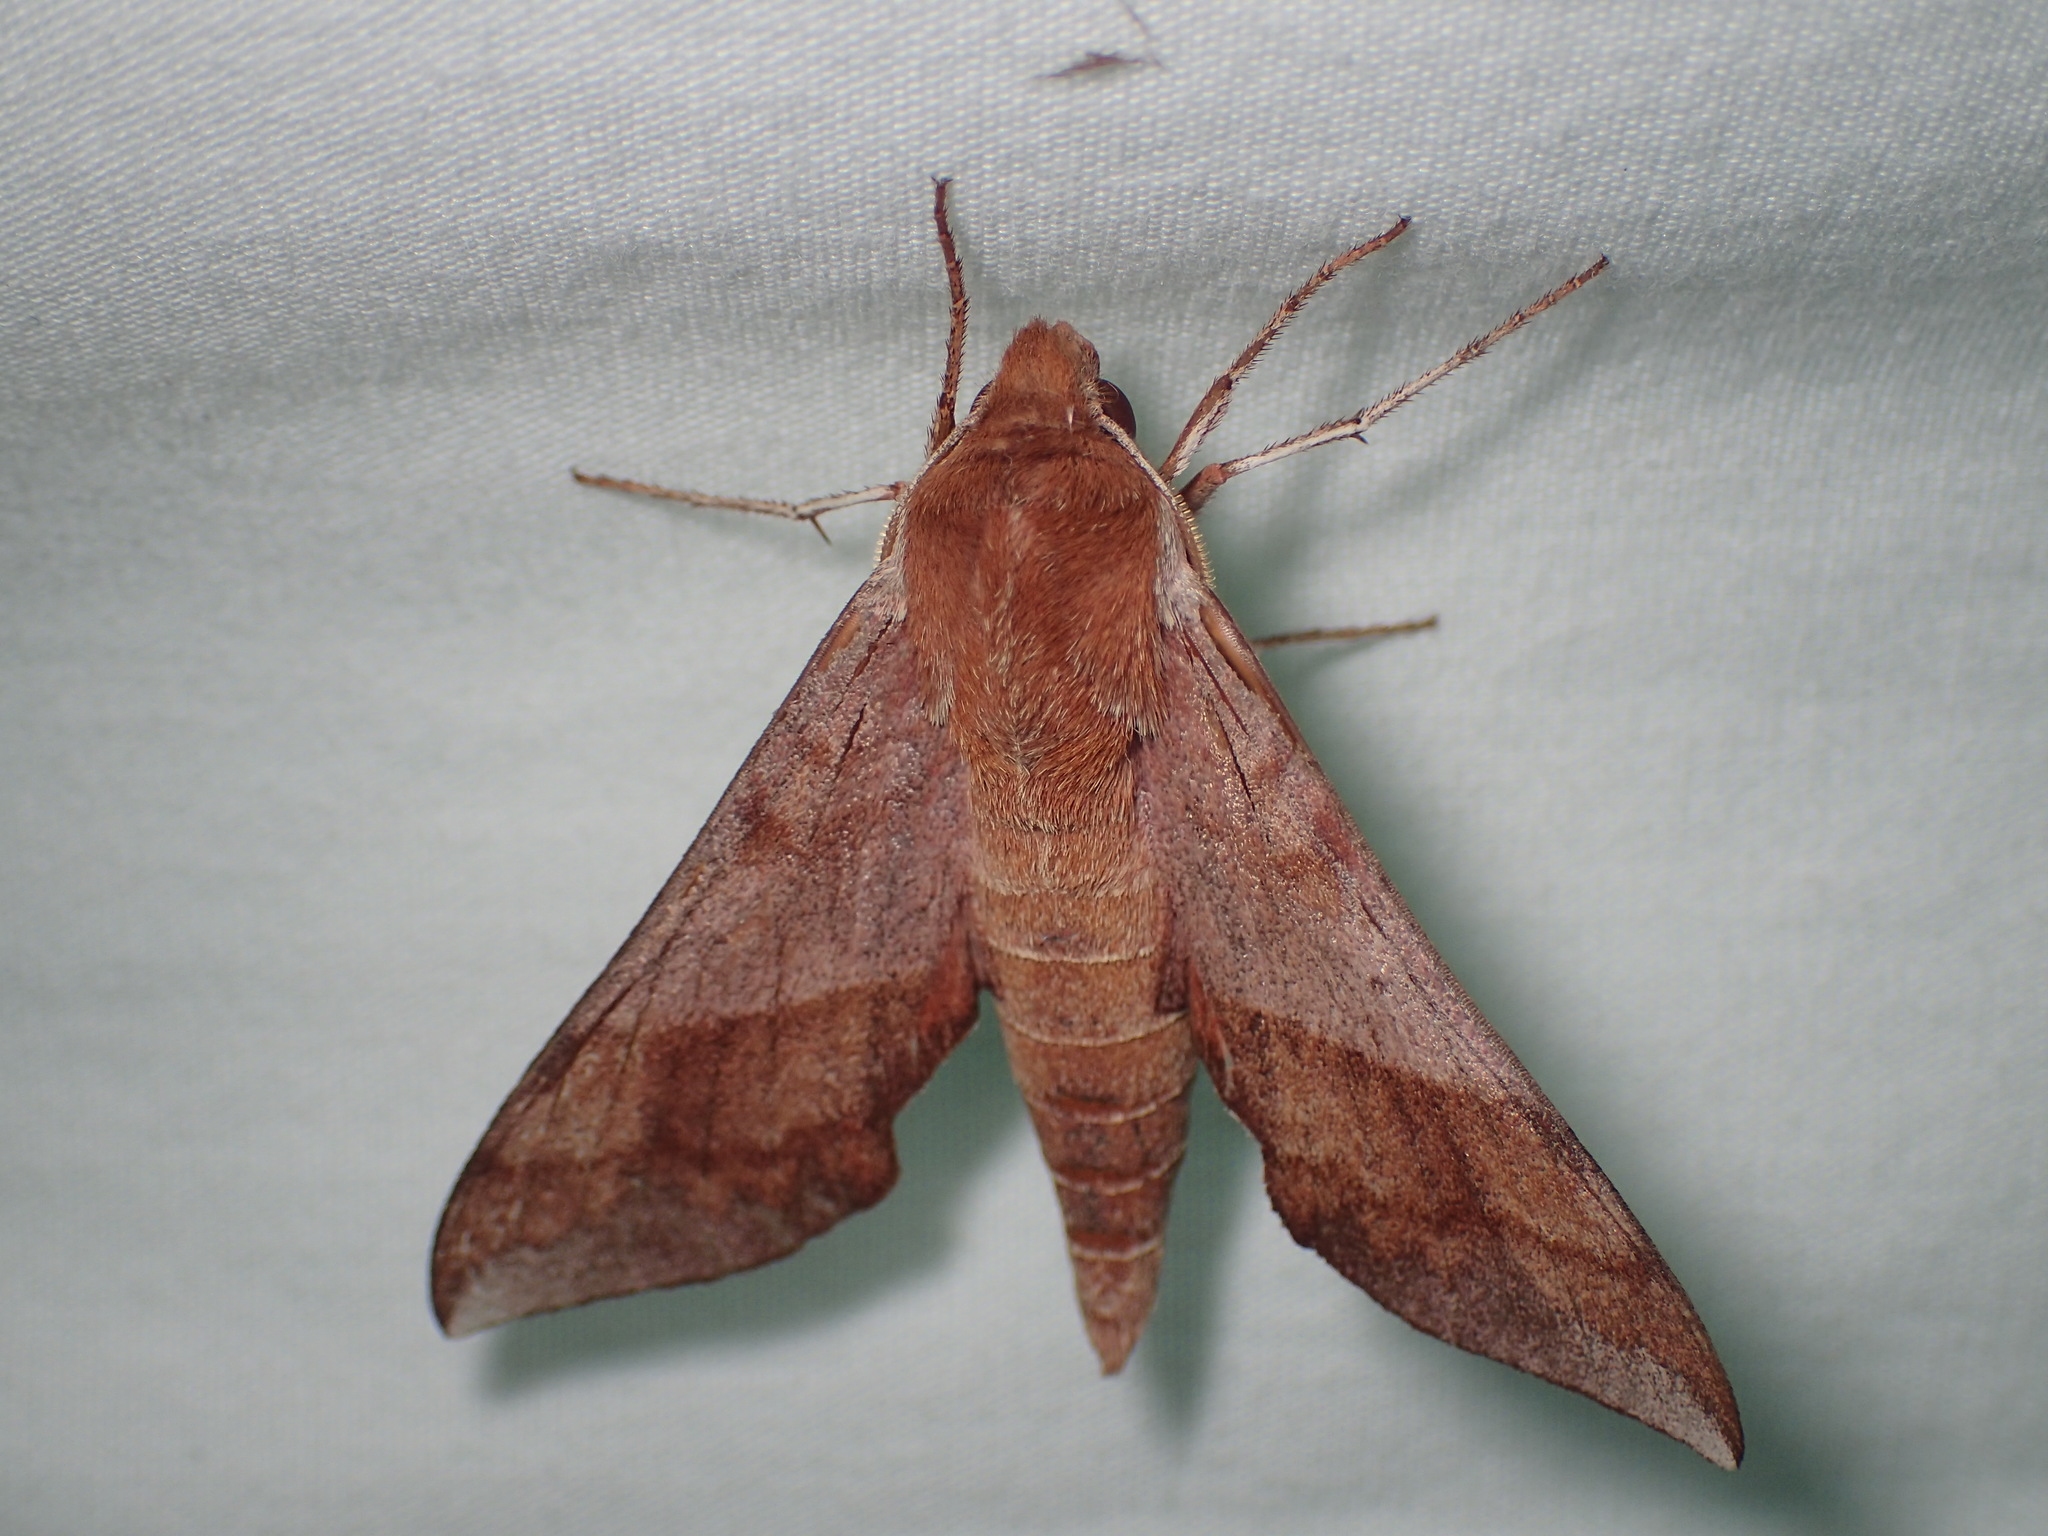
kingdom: Animalia
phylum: Arthropoda
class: Insecta
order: Lepidoptera
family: Sphingidae
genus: Darapsa
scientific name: Darapsa choerilus
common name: Azalea sphinx
